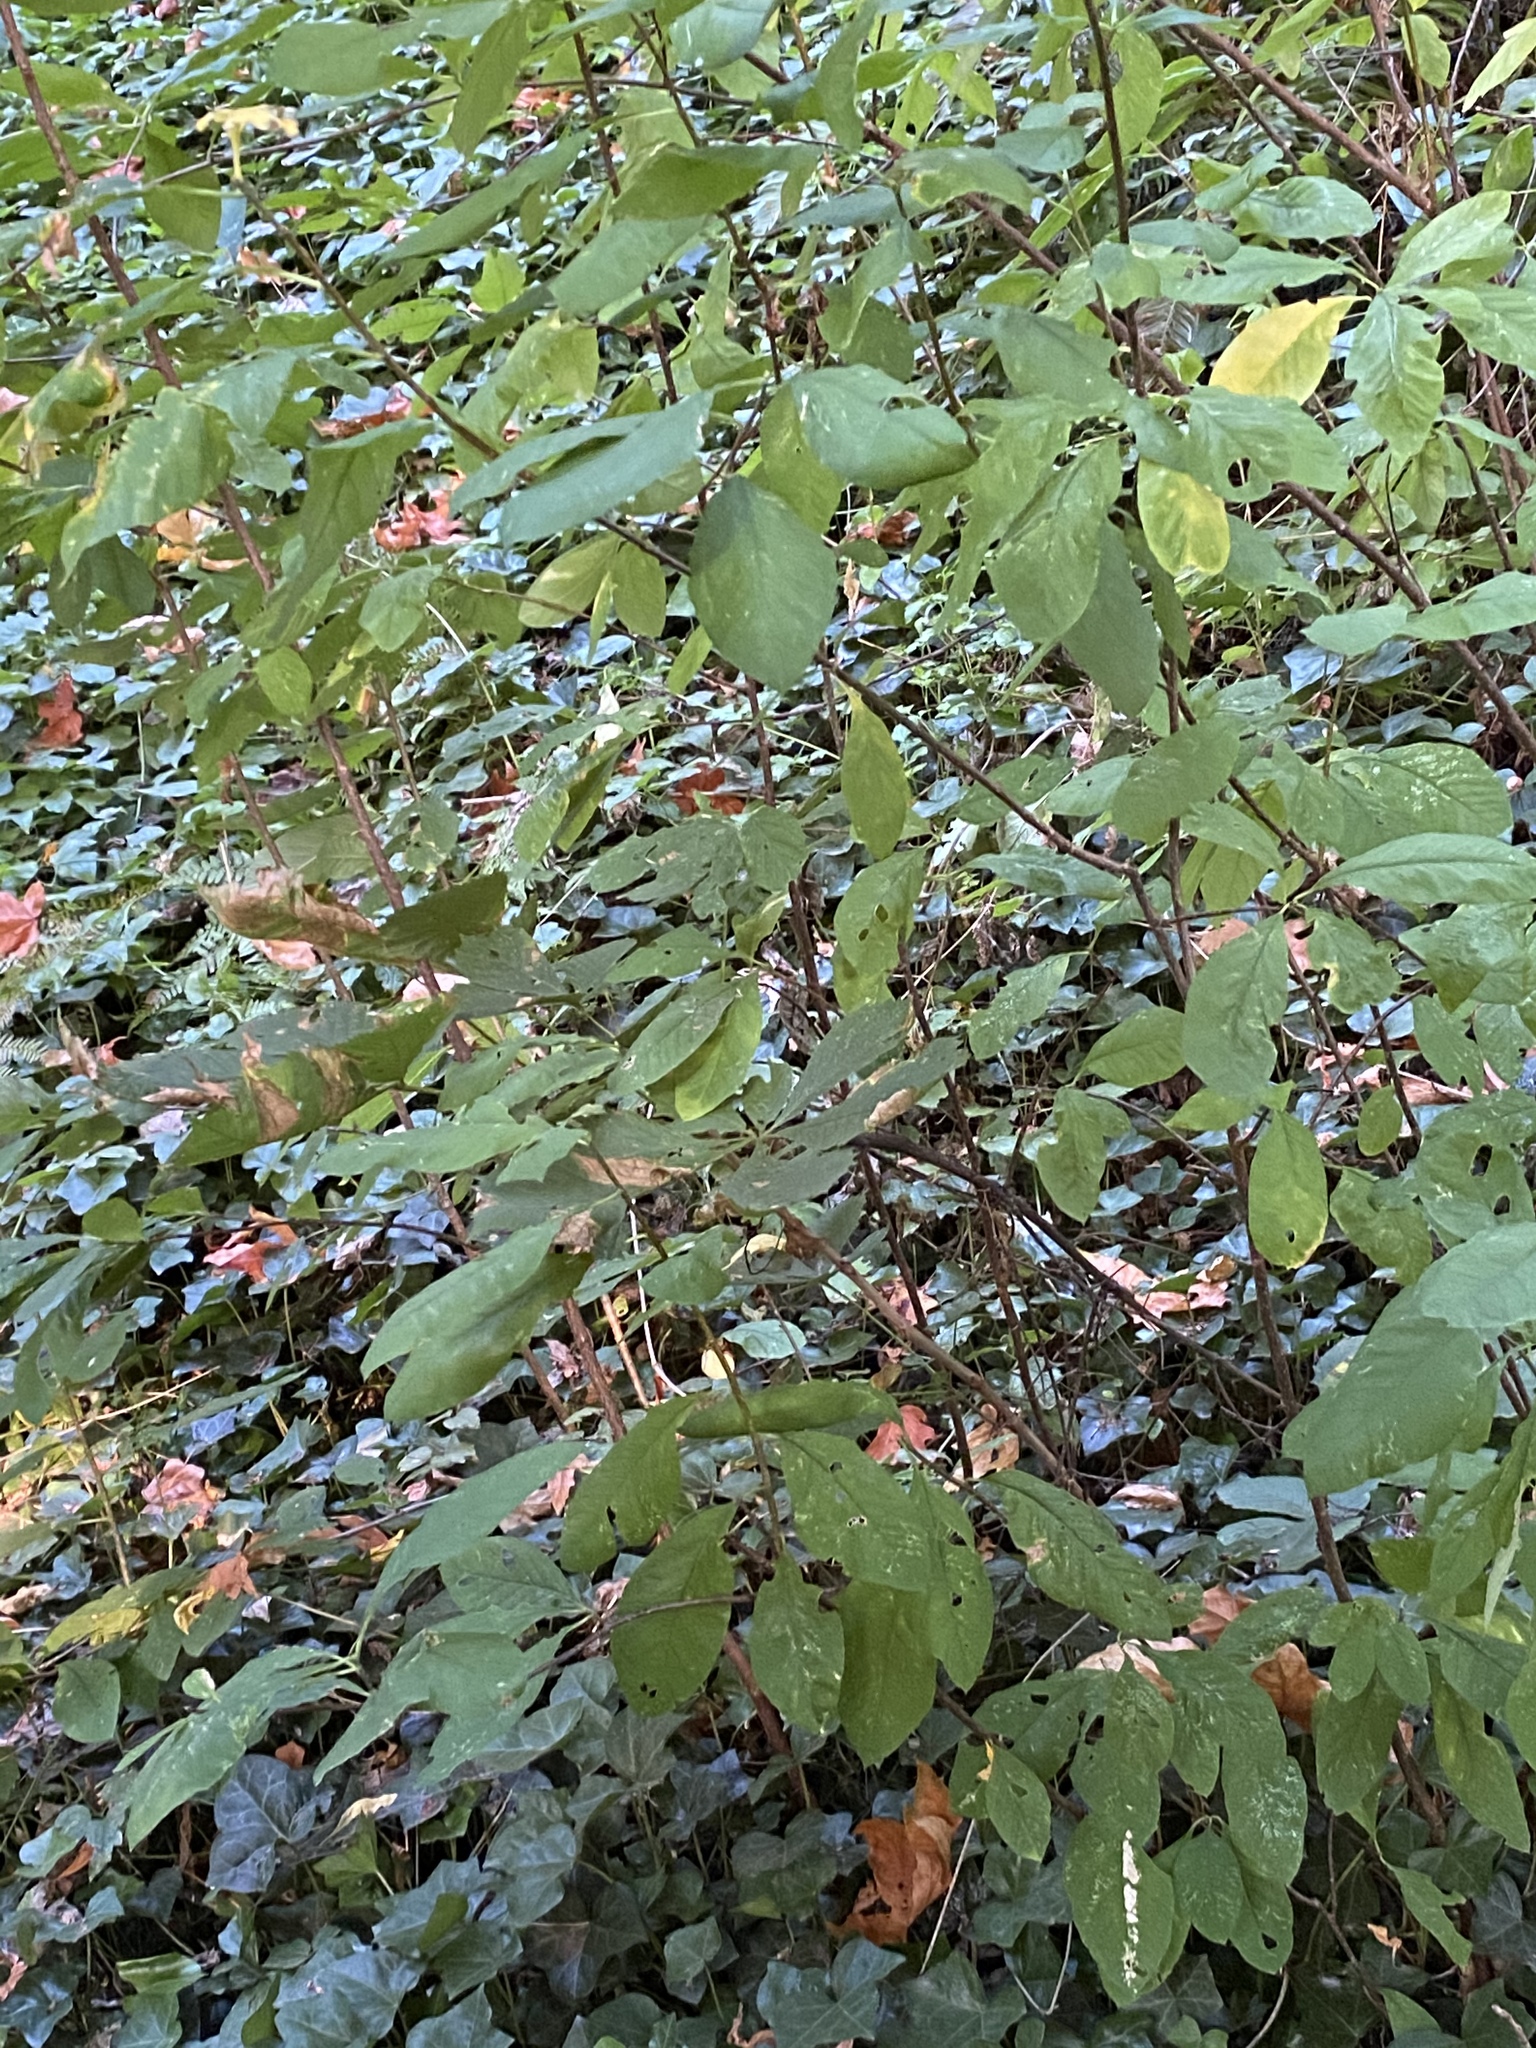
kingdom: Plantae
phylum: Tracheophyta
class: Magnoliopsida
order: Rosales
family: Rosaceae
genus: Oemleria
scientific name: Oemleria cerasiformis
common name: Osoberry
